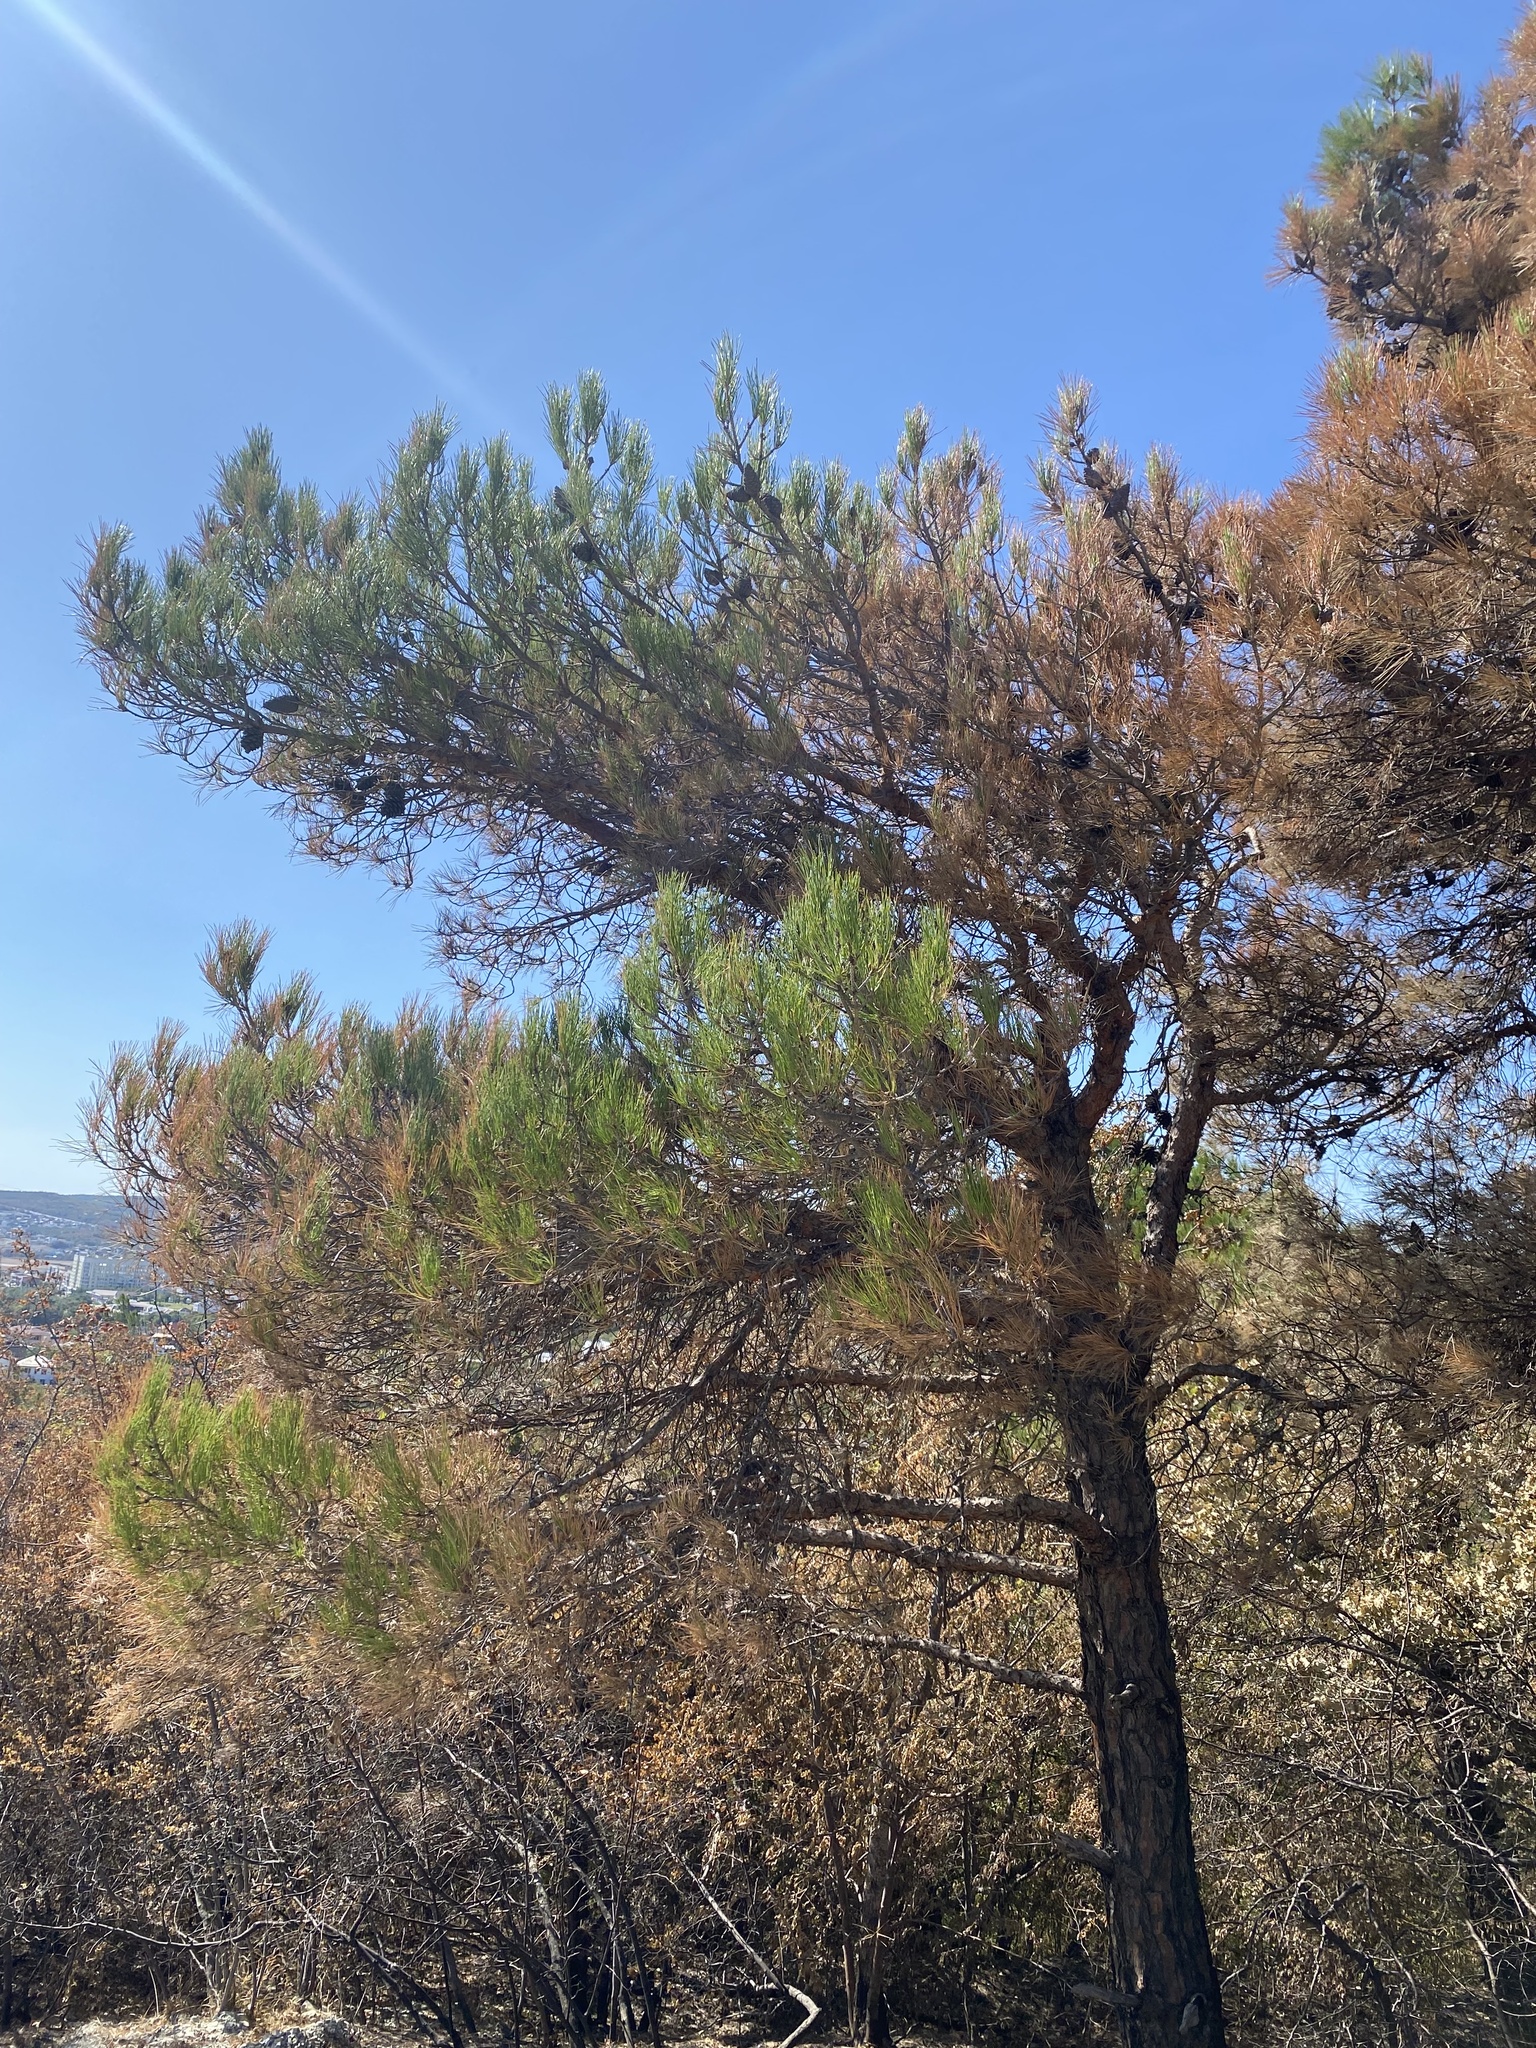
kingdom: Plantae
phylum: Tracheophyta
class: Pinopsida
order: Pinales
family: Pinaceae
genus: Pinus
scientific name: Pinus brutia
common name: Turkish pine
